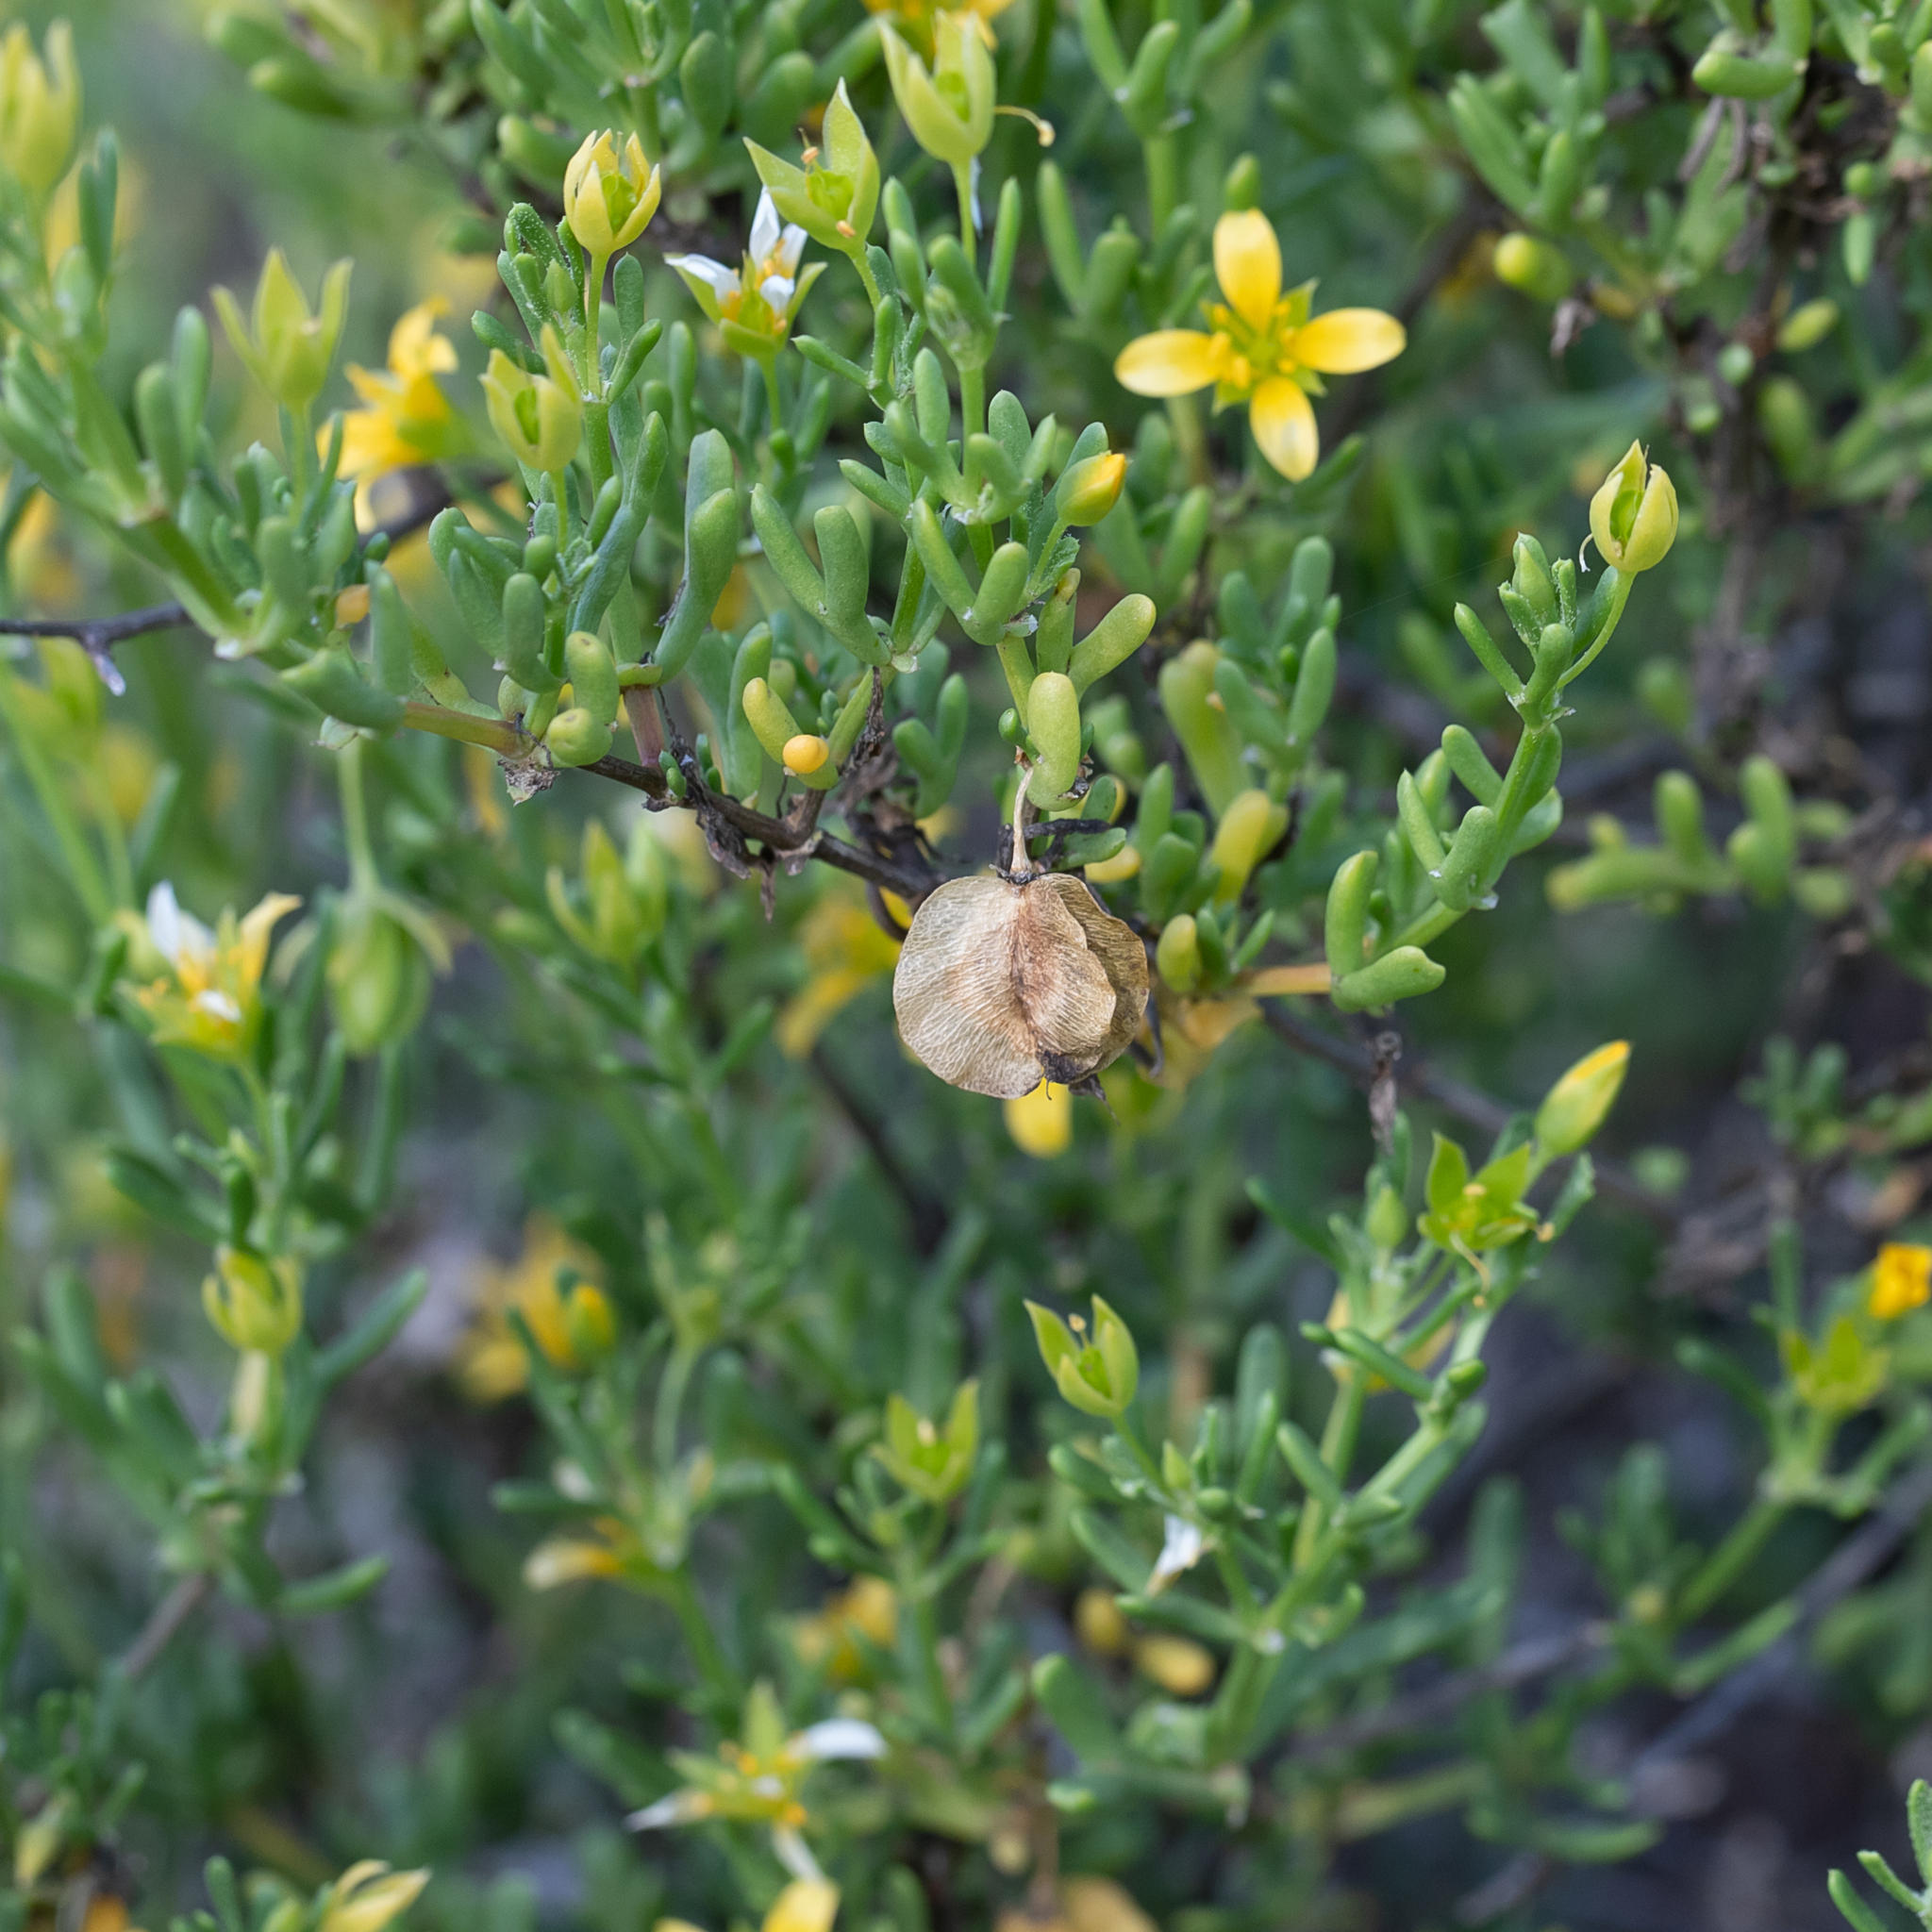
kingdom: Plantae
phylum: Tracheophyta
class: Magnoliopsida
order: Zygophyllales
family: Zygophyllaceae
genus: Roepera
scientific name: Roepera aurantiaca
